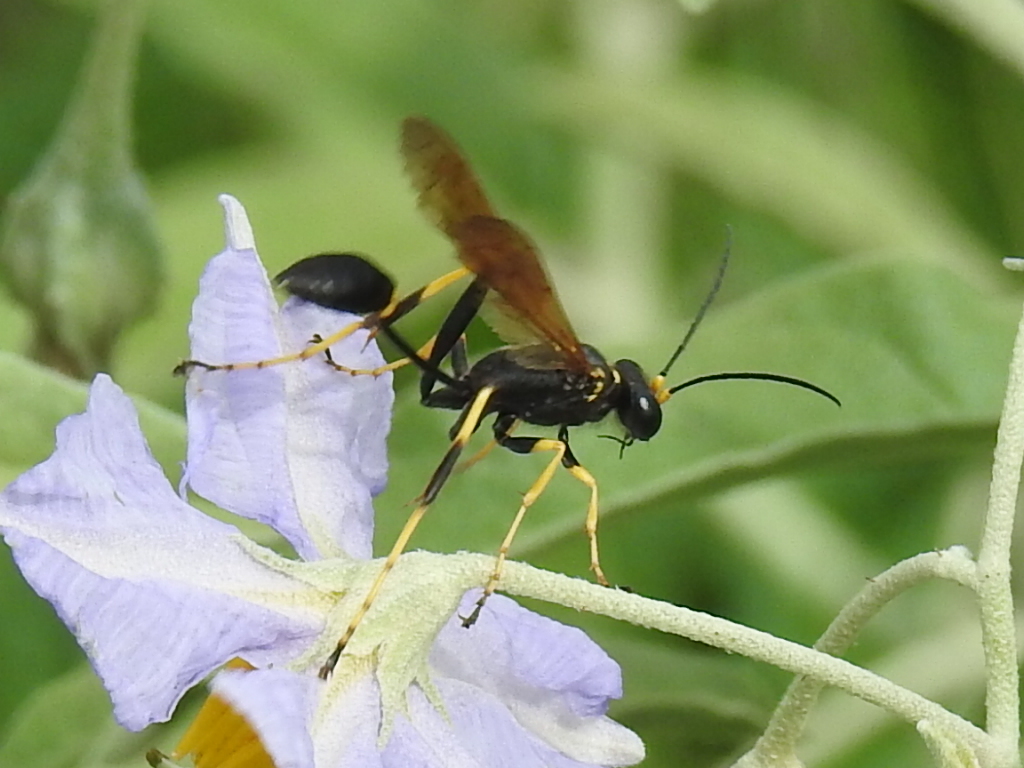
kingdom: Animalia
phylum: Arthropoda
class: Insecta
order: Hymenoptera
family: Sphecidae
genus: Sceliphron
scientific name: Sceliphron caementarium
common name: Mud dauber
